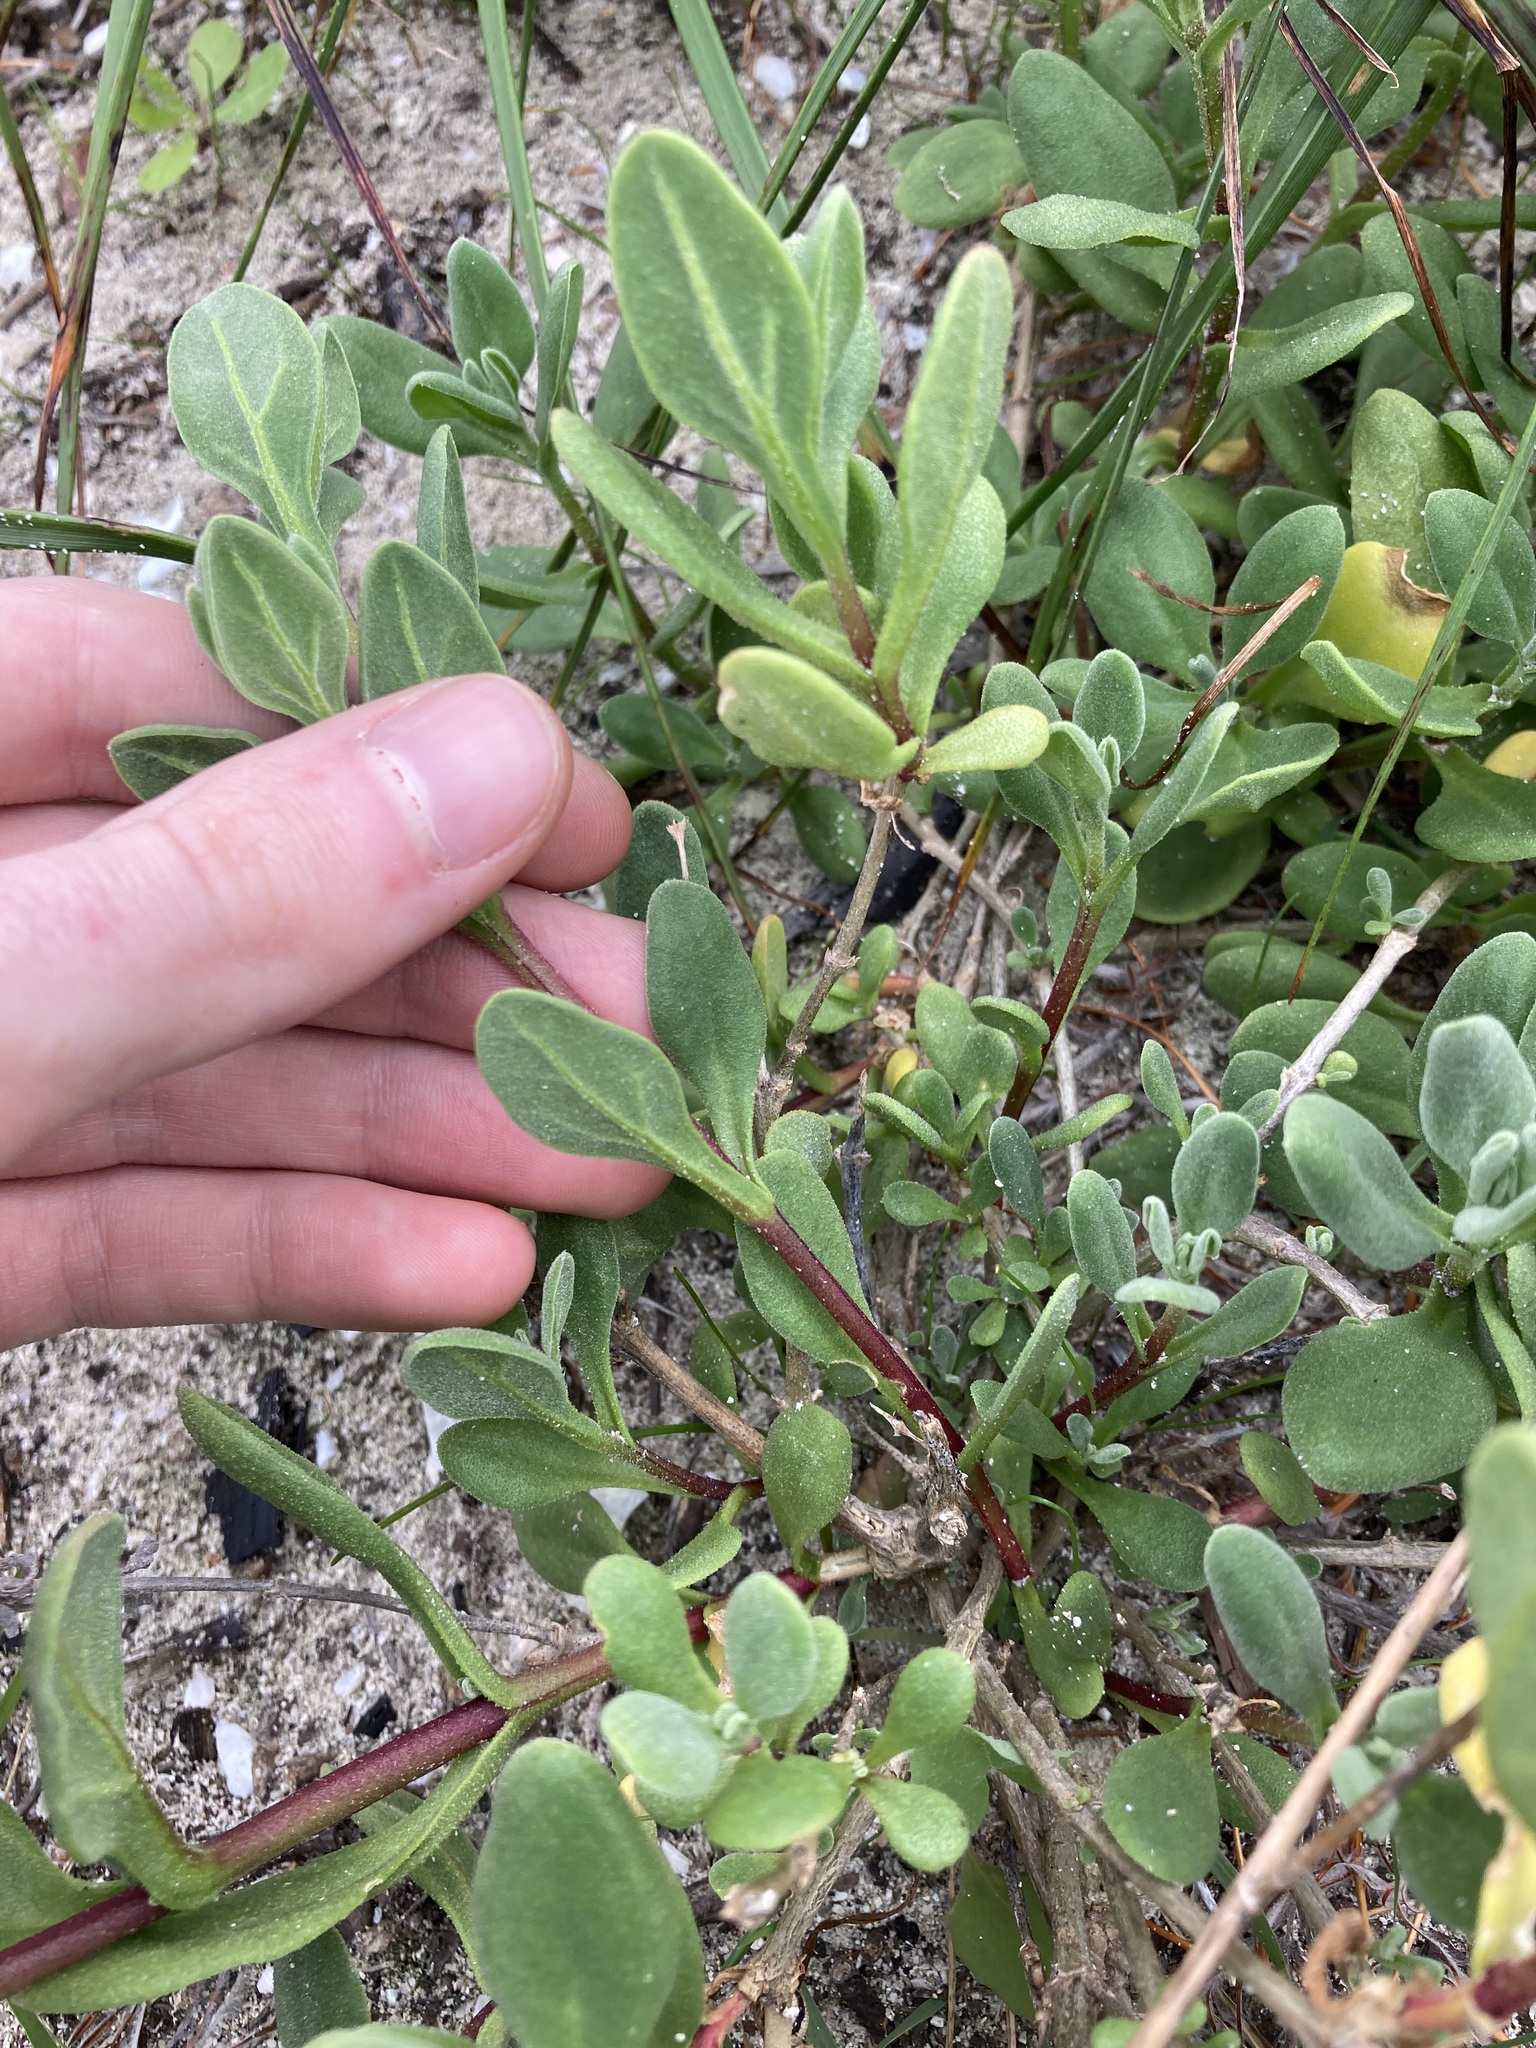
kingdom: Plantae
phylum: Tracheophyta
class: Magnoliopsida
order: Caryophyllales
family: Aizoaceae
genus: Tetragonia
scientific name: Tetragonia decumbens
